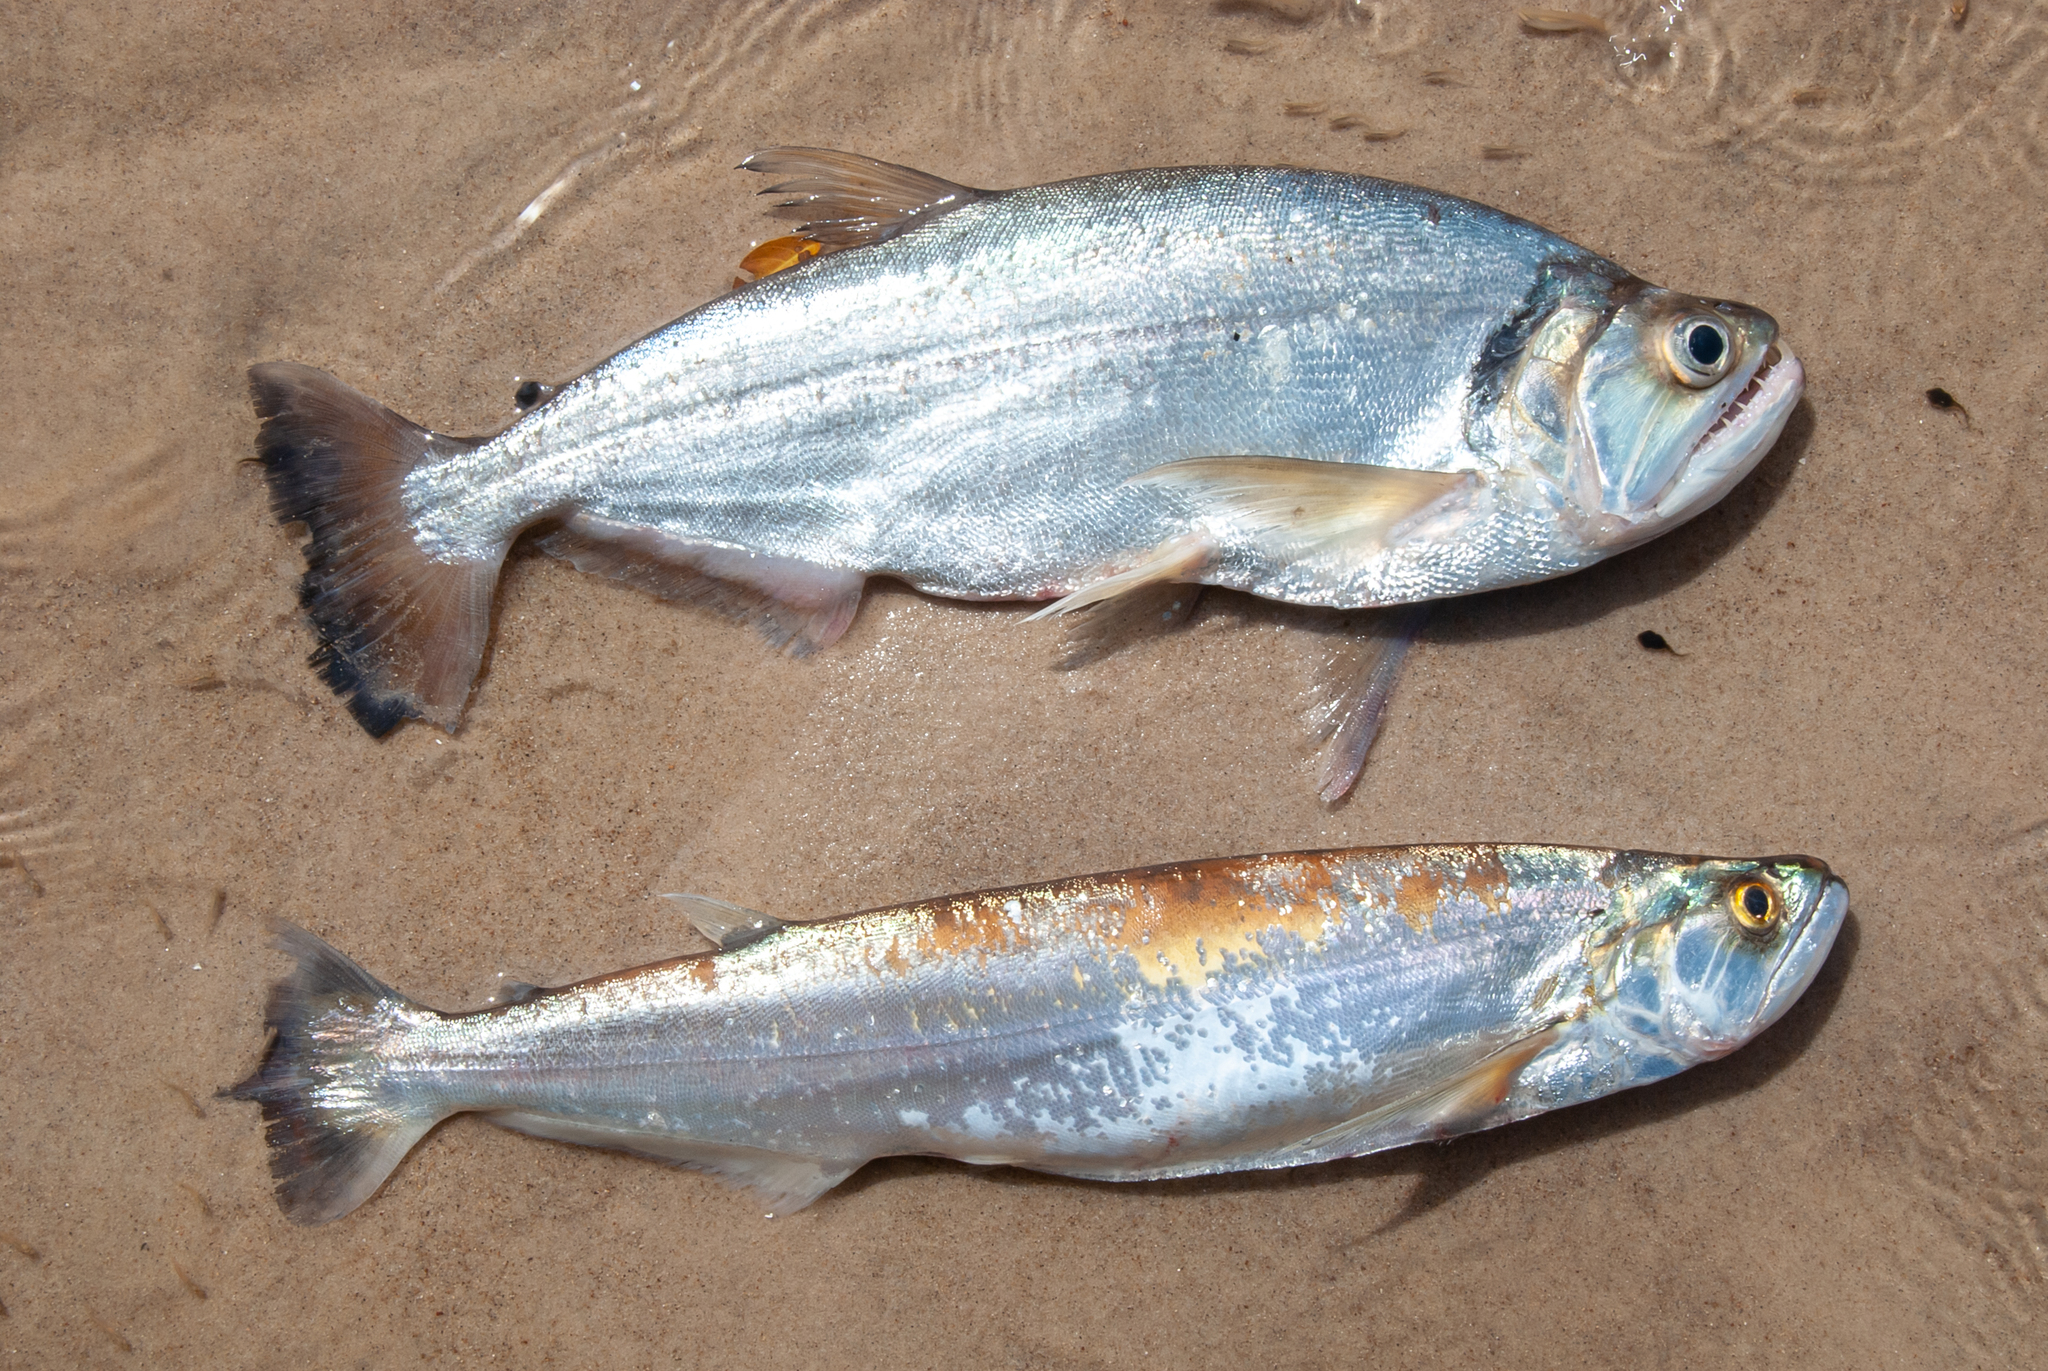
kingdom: Animalia
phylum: Chordata
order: Characiformes
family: Cynodontidae
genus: Hydrolycus
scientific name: Hydrolycus armatus
